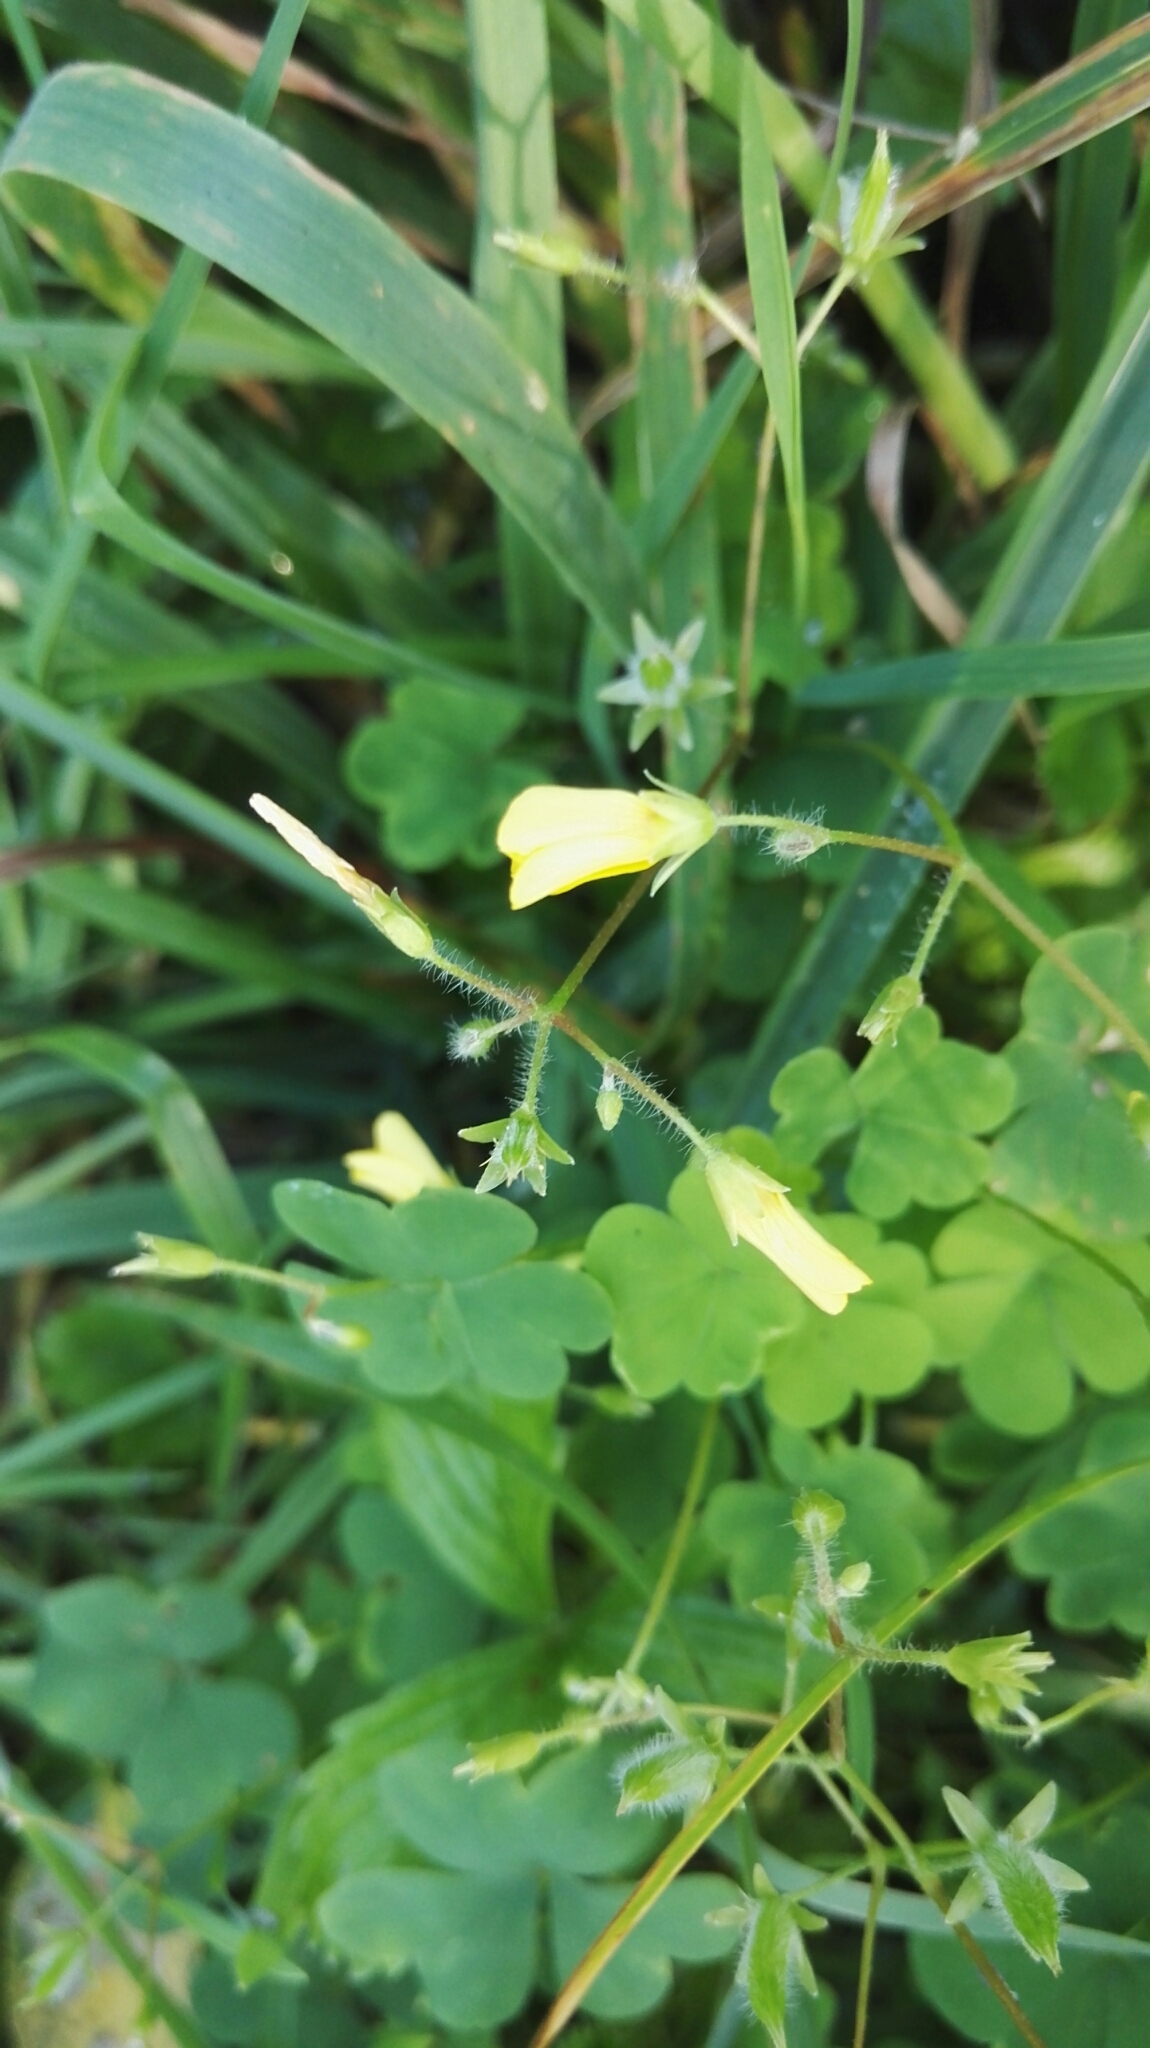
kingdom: Plantae
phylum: Tracheophyta
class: Magnoliopsida
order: Oxalidales
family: Oxalidaceae
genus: Oxalis
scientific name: Oxalis stricta
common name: Upright yellow-sorrel
